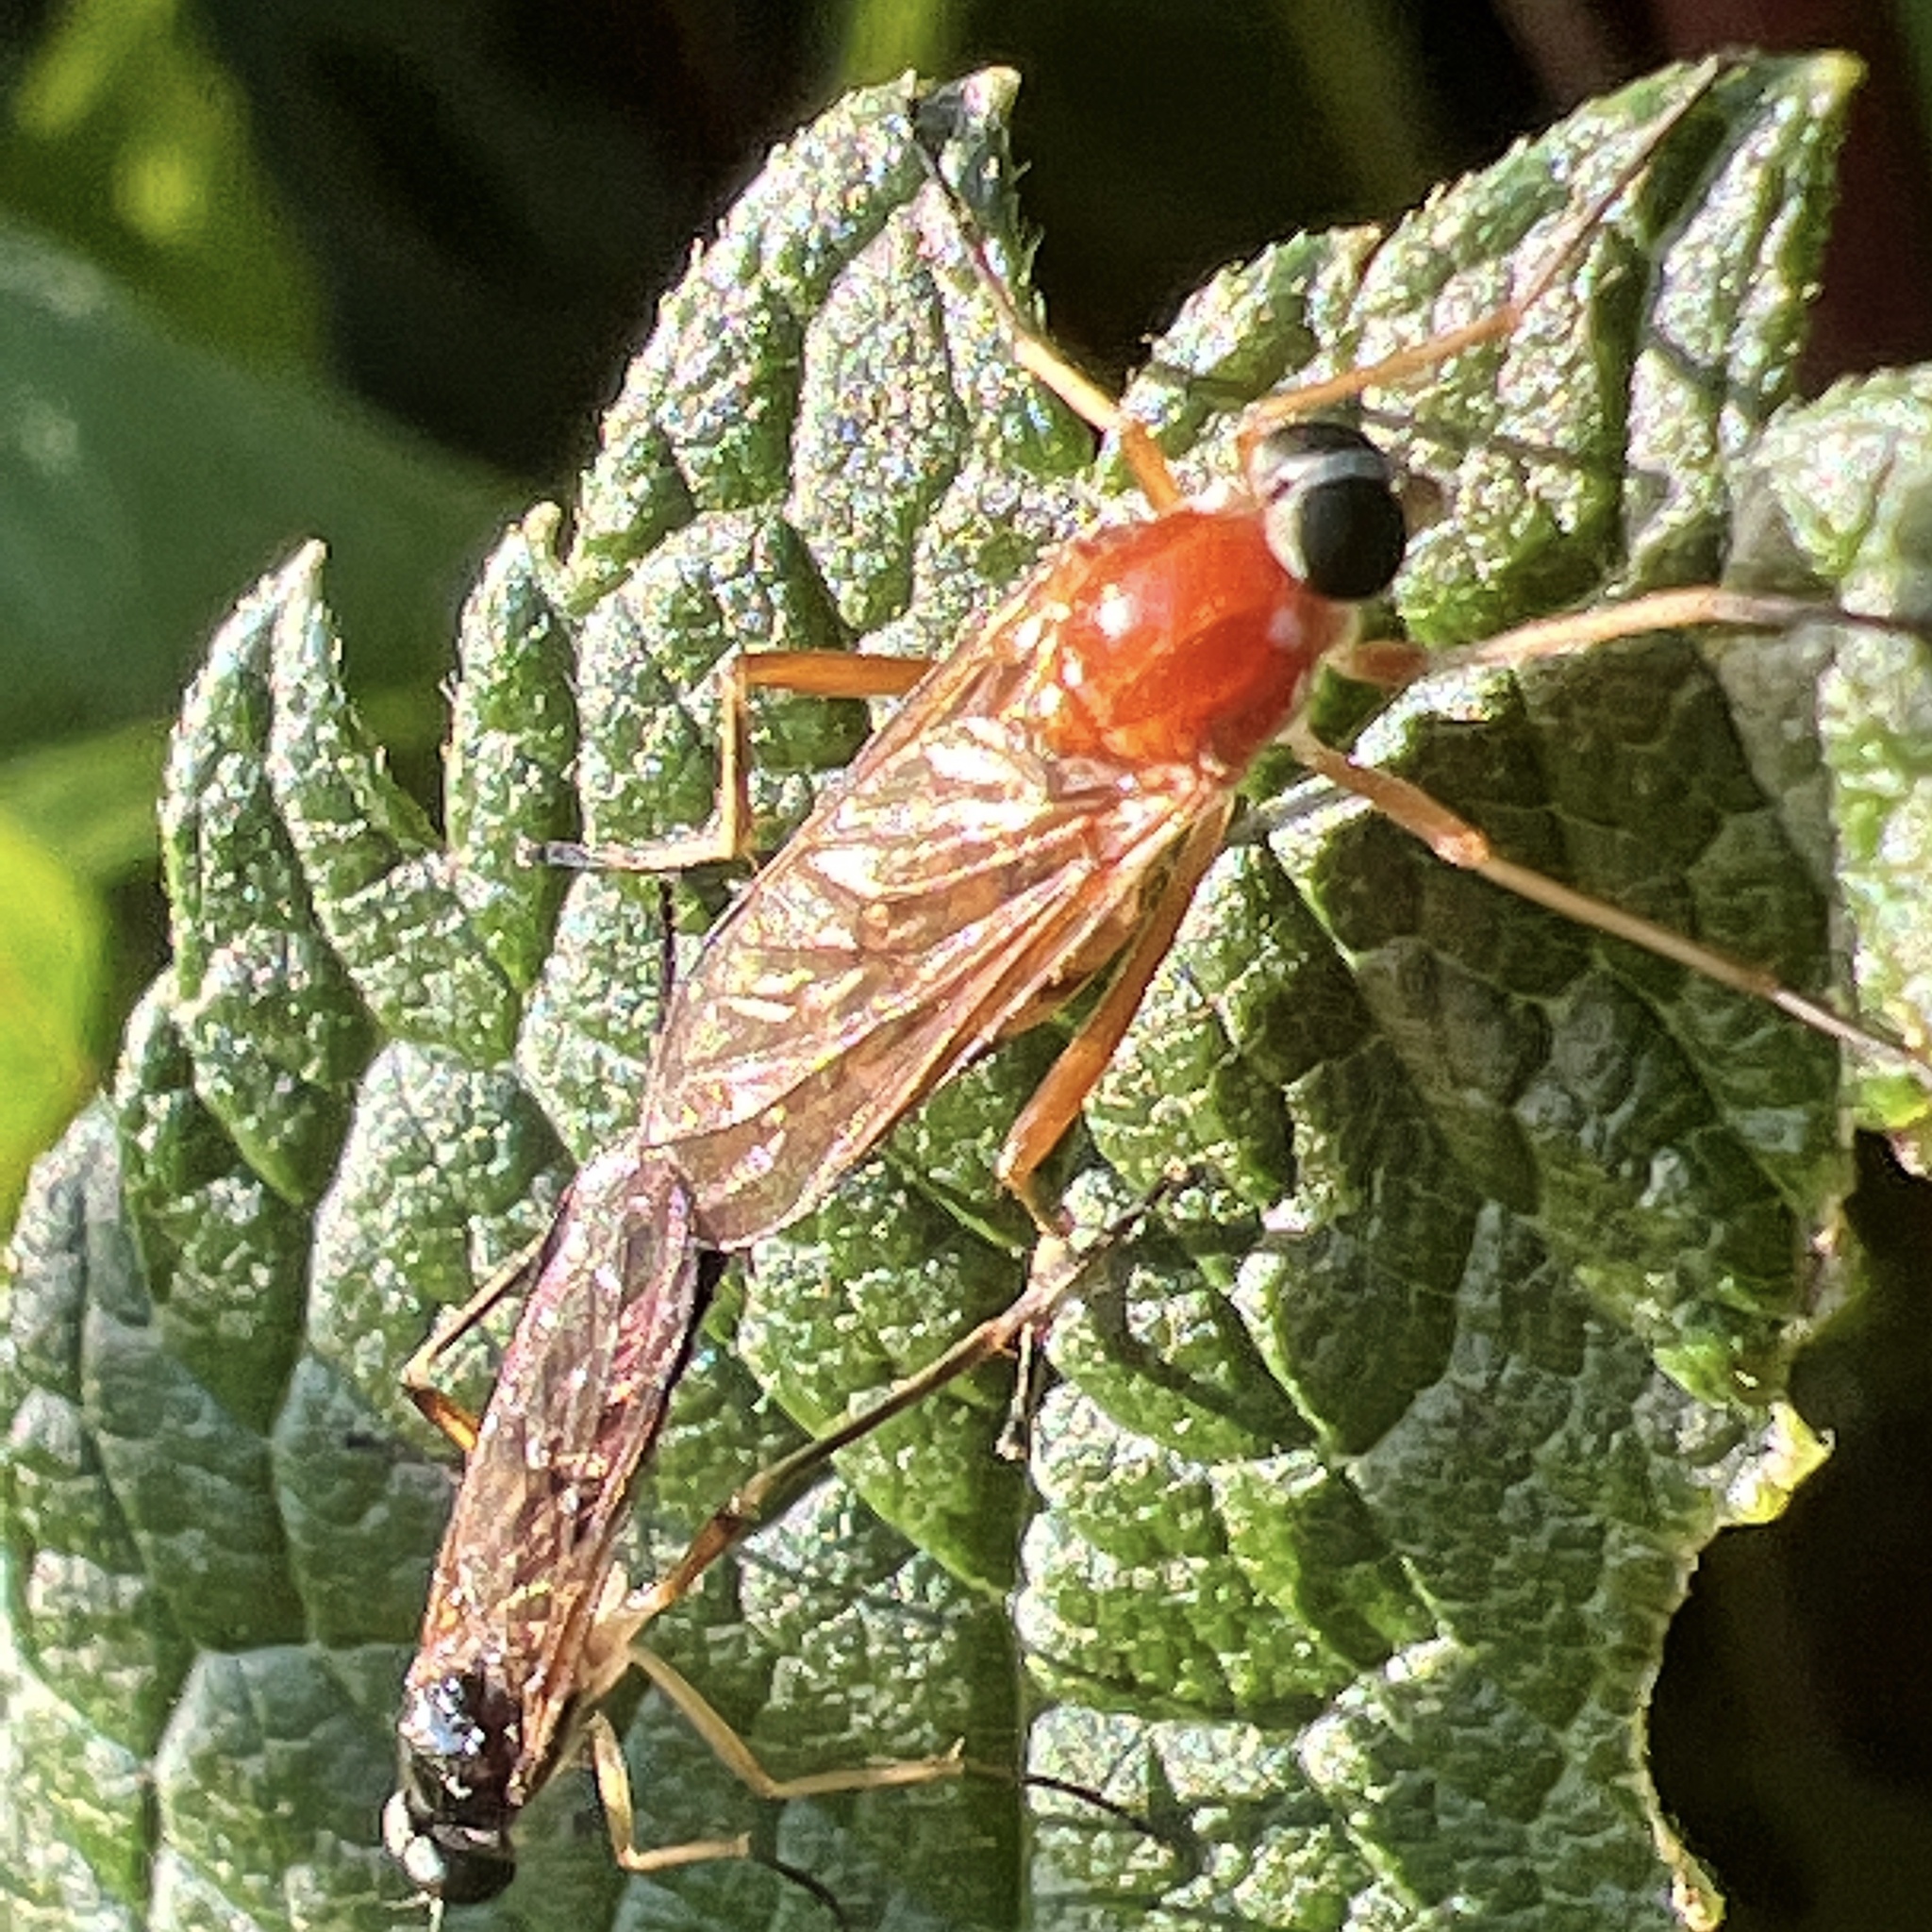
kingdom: Animalia
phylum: Arthropoda
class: Insecta
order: Diptera
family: Xylophagidae
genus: Dialysis
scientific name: Dialysis elongata
